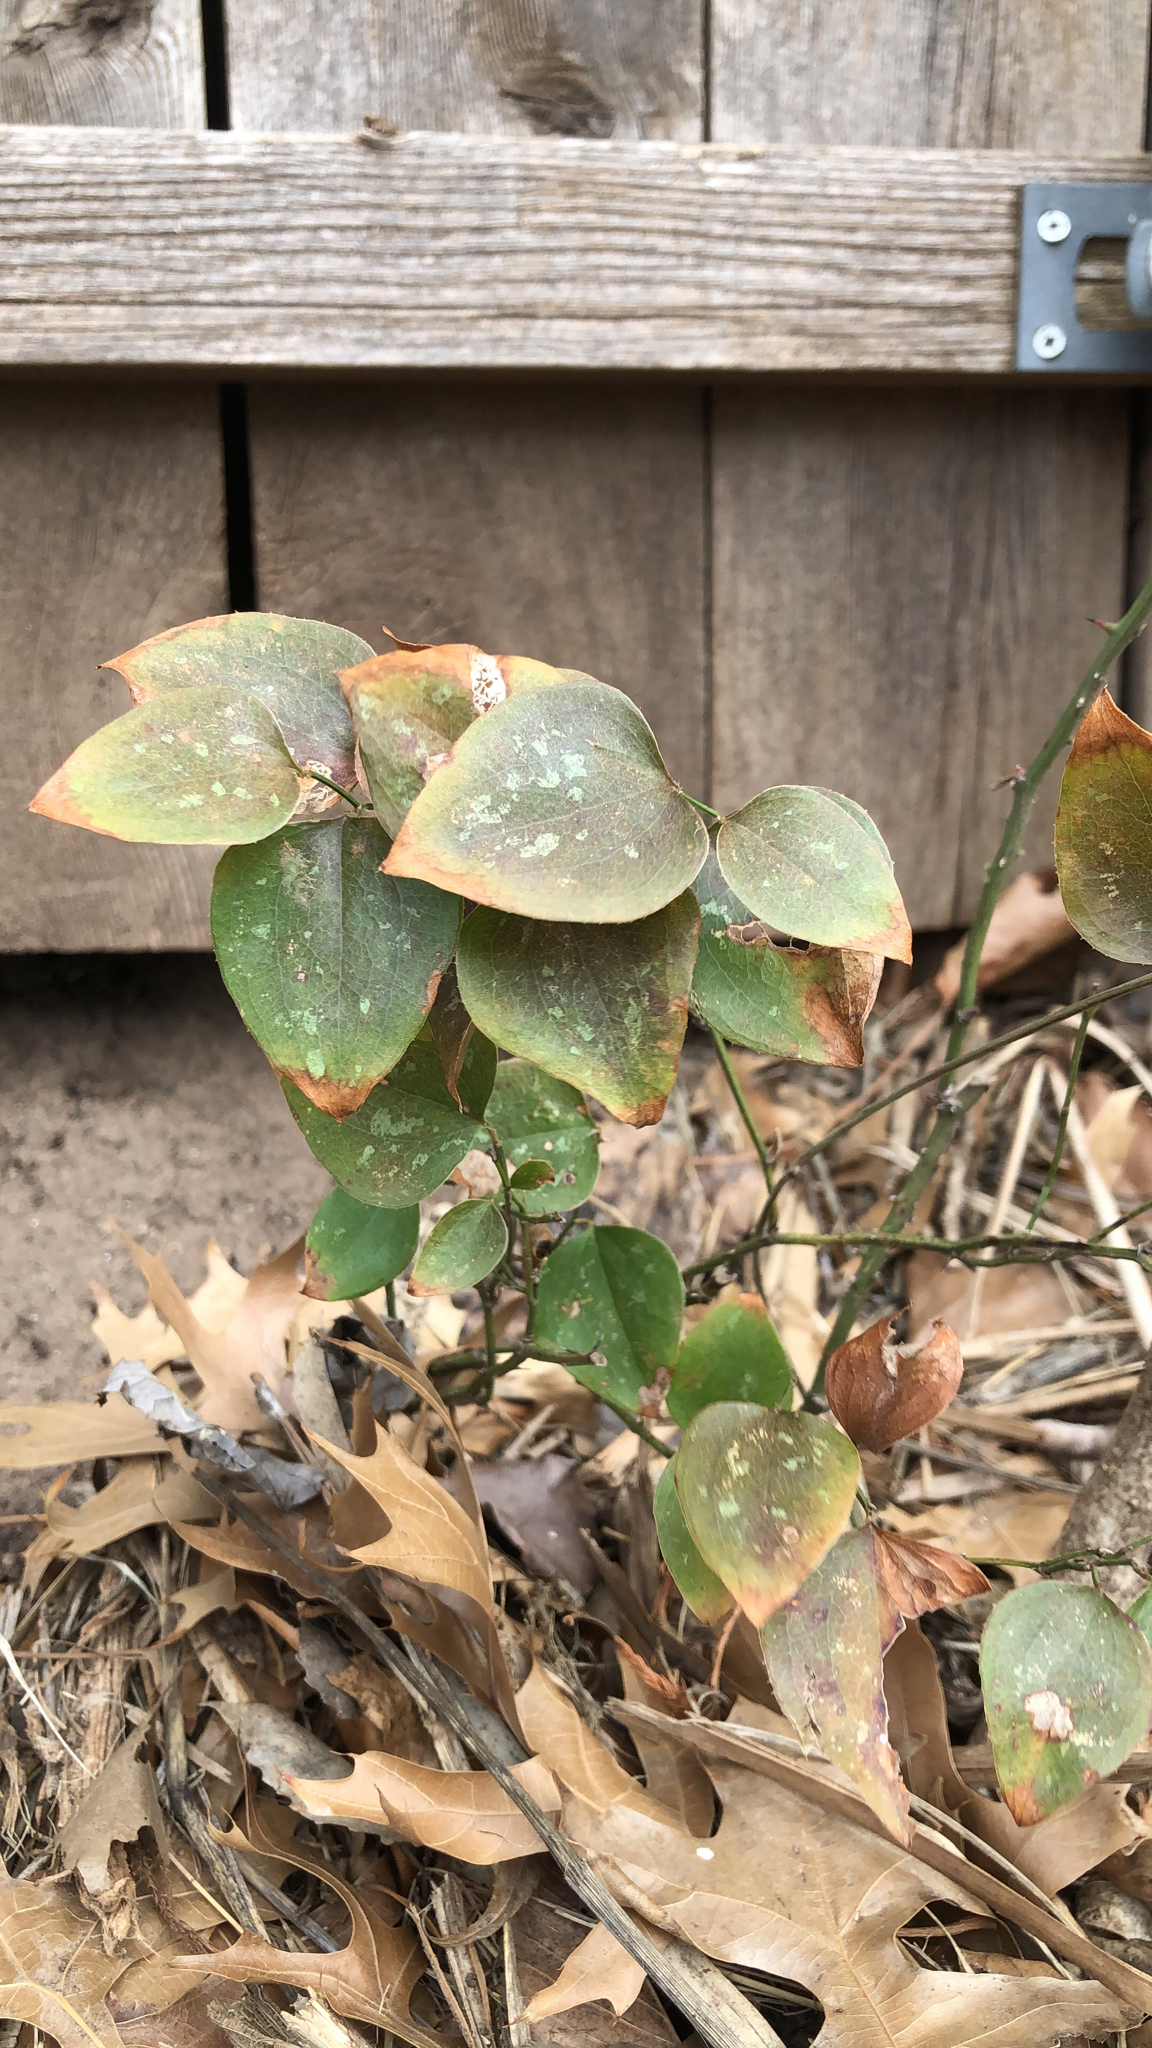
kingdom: Plantae
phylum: Tracheophyta
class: Liliopsida
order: Liliales
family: Smilacaceae
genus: Smilax
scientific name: Smilax bona-nox
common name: Catbrier
